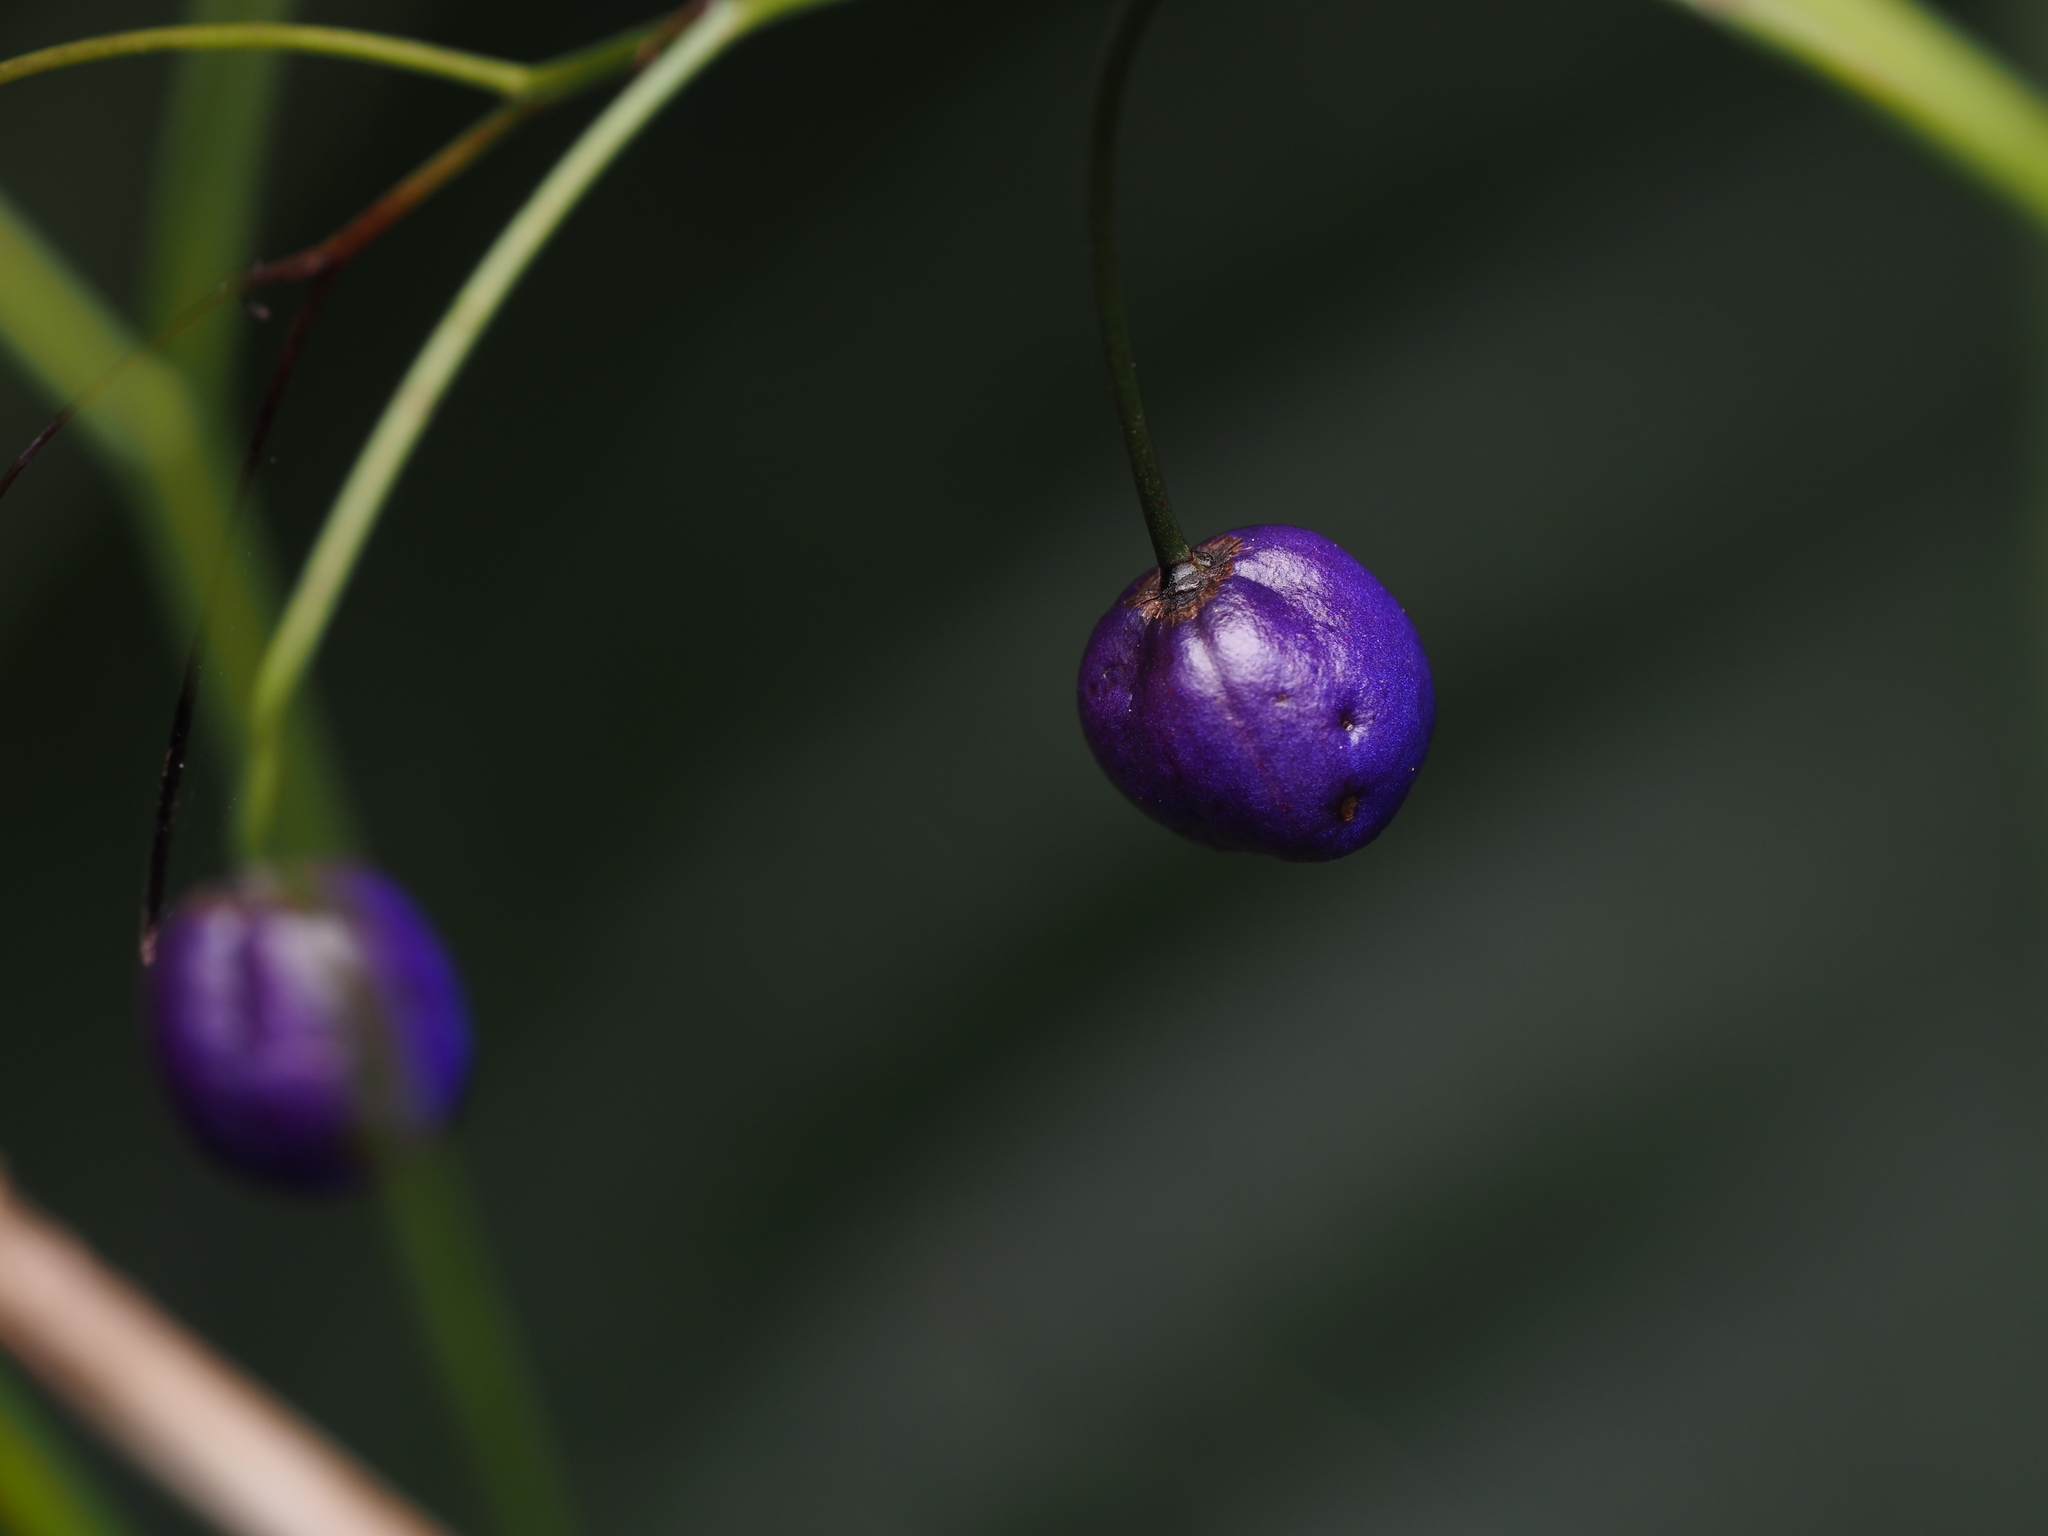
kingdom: Plantae
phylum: Tracheophyta
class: Liliopsida
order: Asparagales
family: Asphodelaceae
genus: Dianella
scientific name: Dianella nigra
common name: New zealand-blueberry
